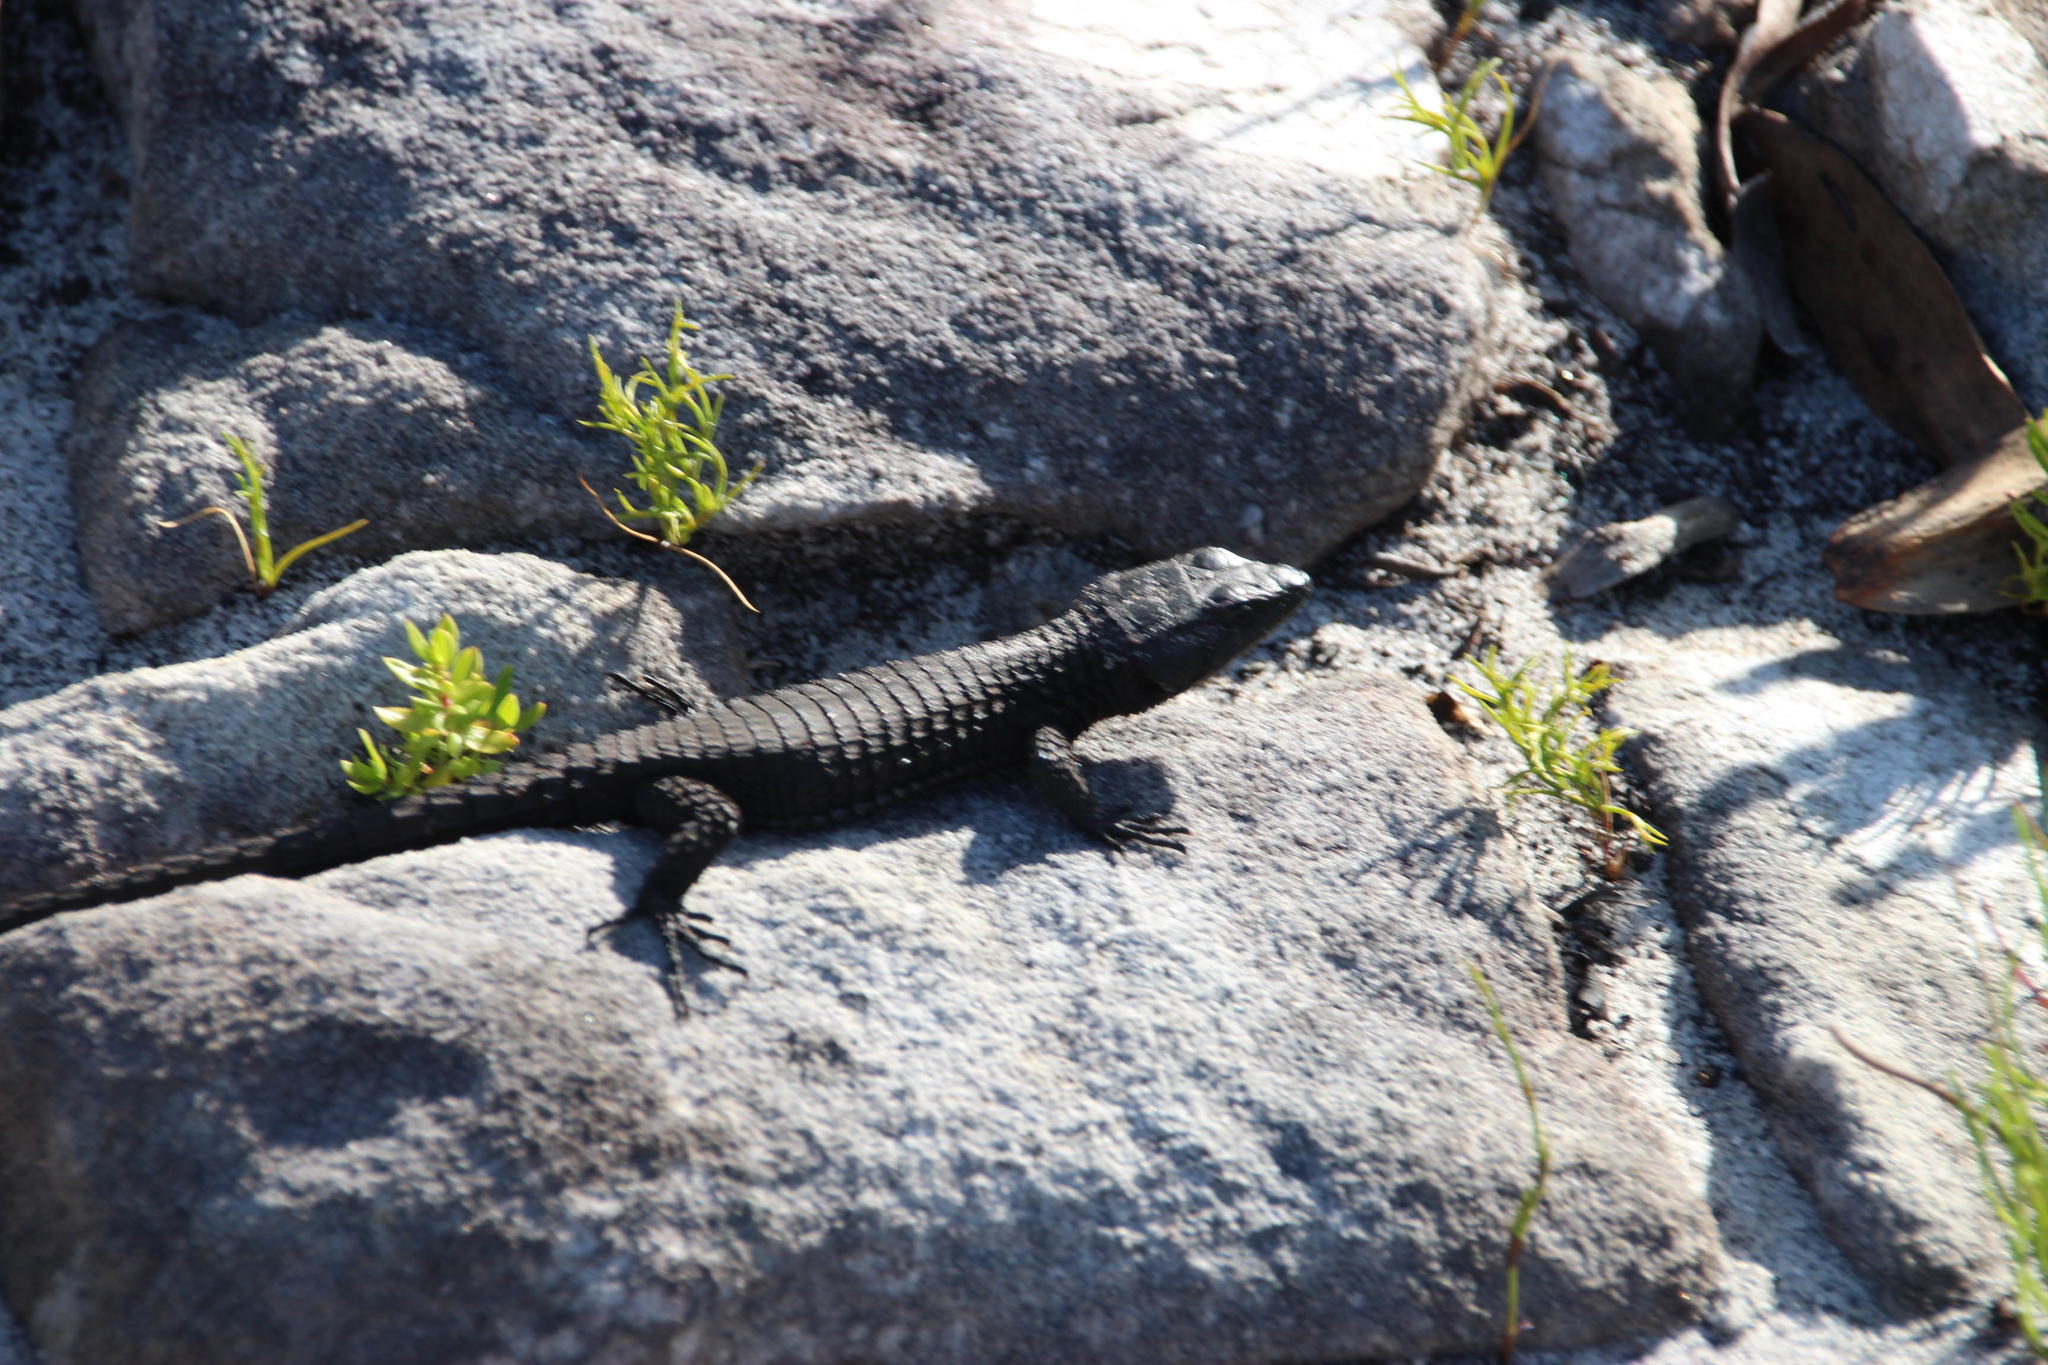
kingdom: Animalia
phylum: Chordata
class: Squamata
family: Cordylidae
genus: Cordylus
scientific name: Cordylus niger
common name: Black girdled lizard
